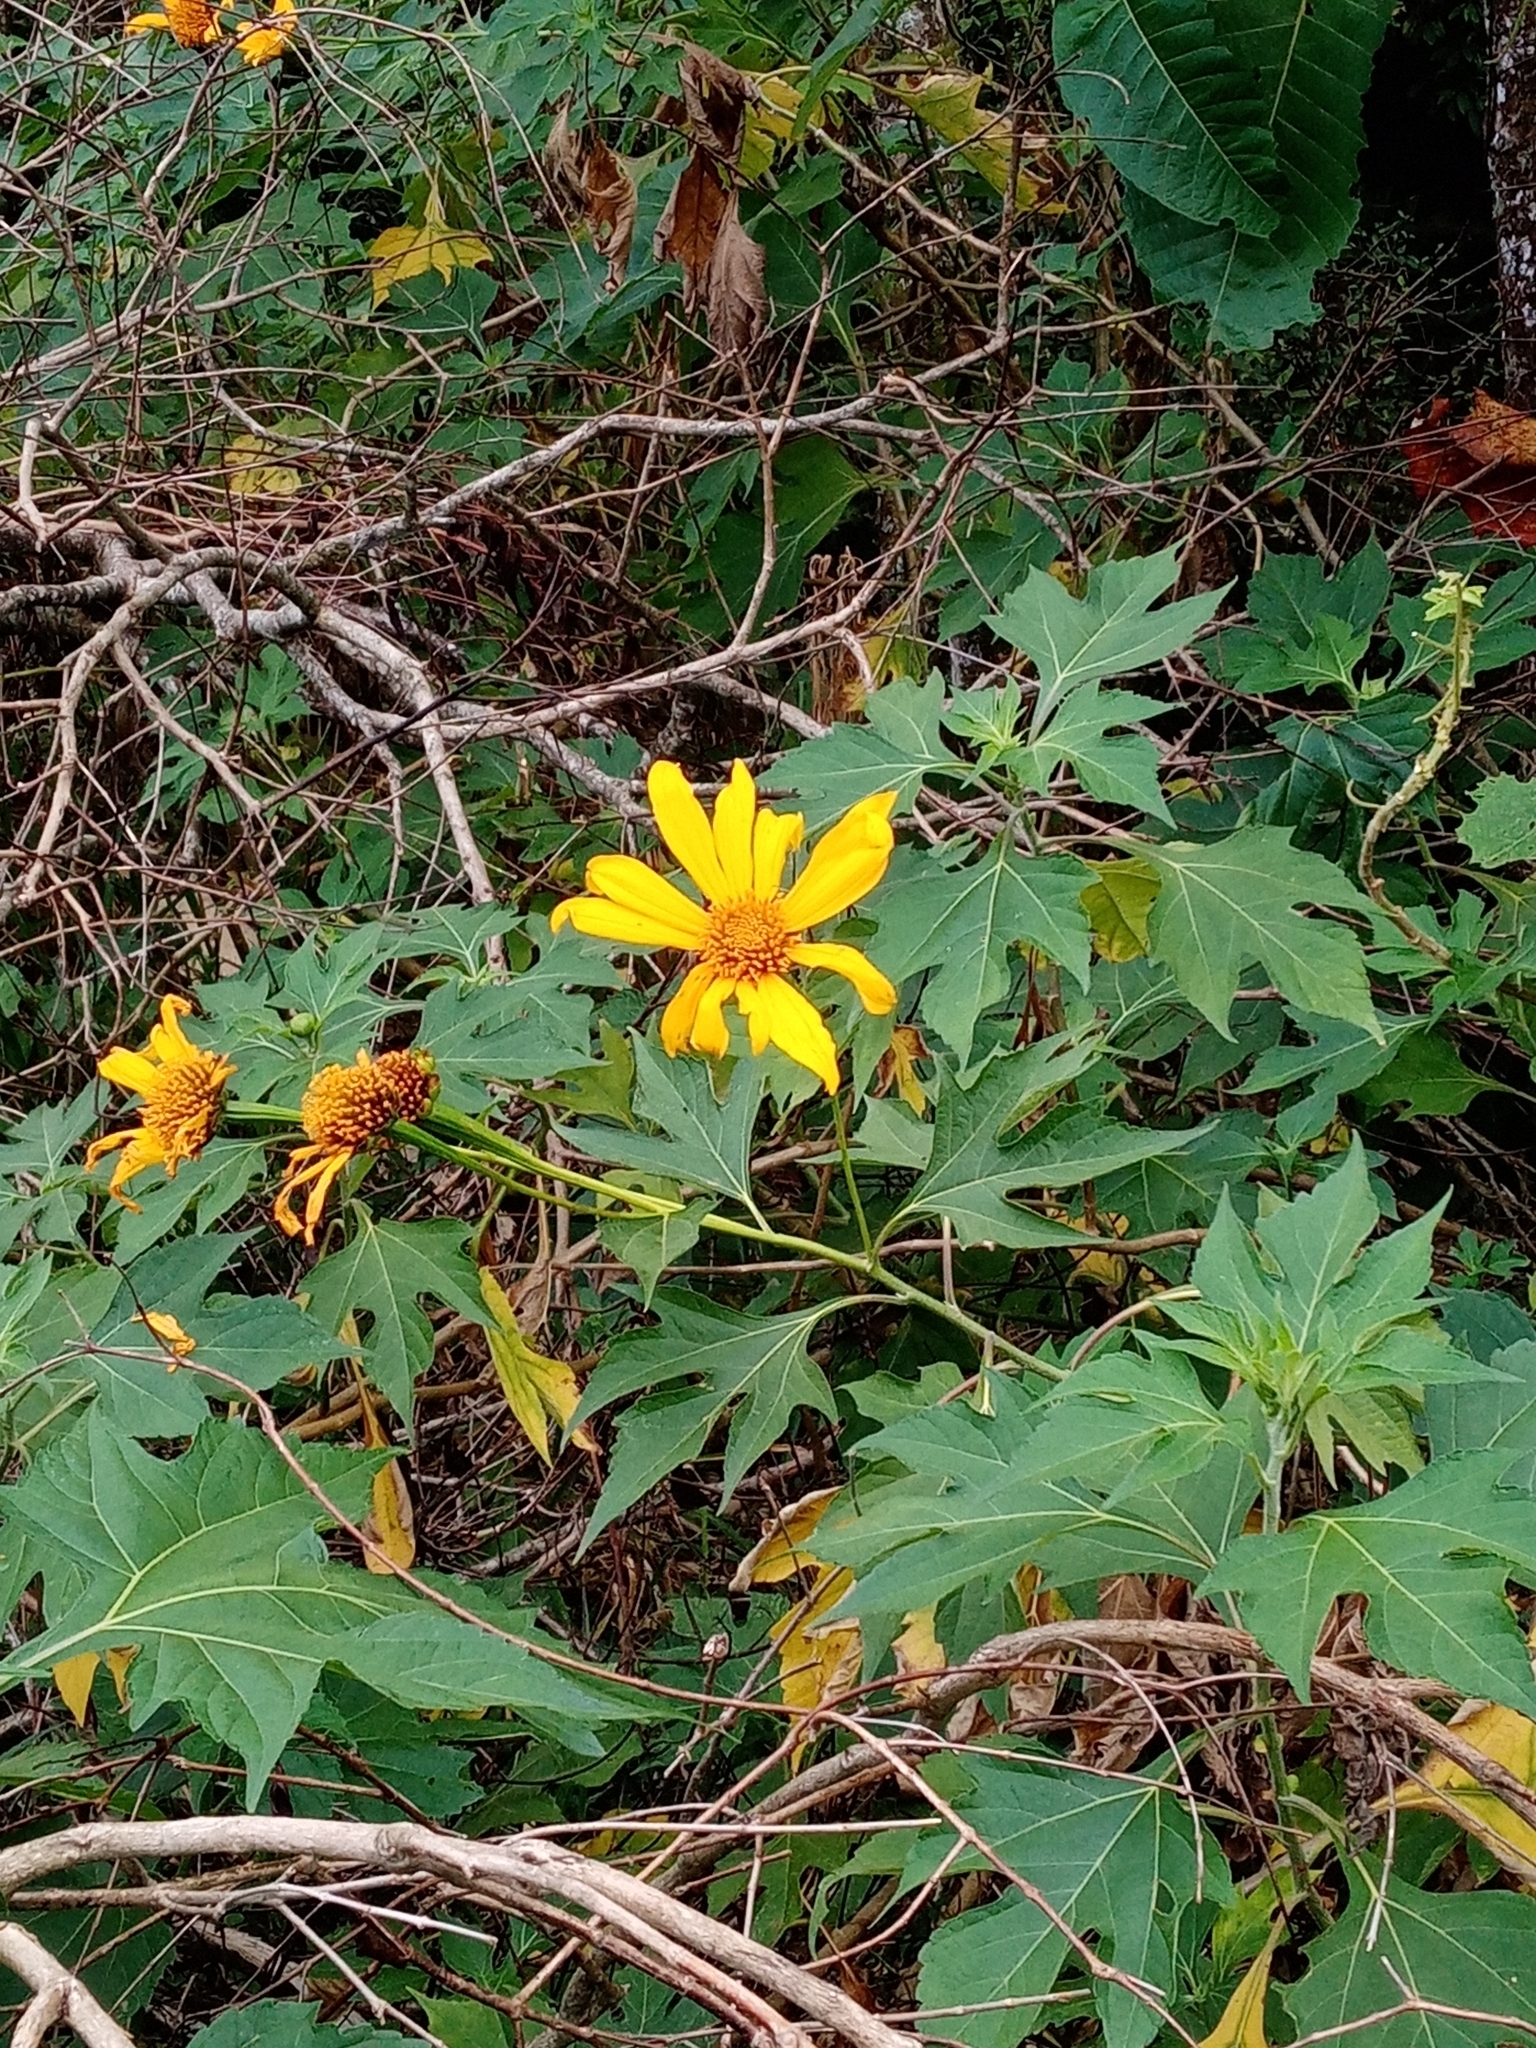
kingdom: Plantae
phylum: Tracheophyta
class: Magnoliopsida
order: Asterales
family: Asteraceae
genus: Tithonia
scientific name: Tithonia diversifolia
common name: Tree marigold
